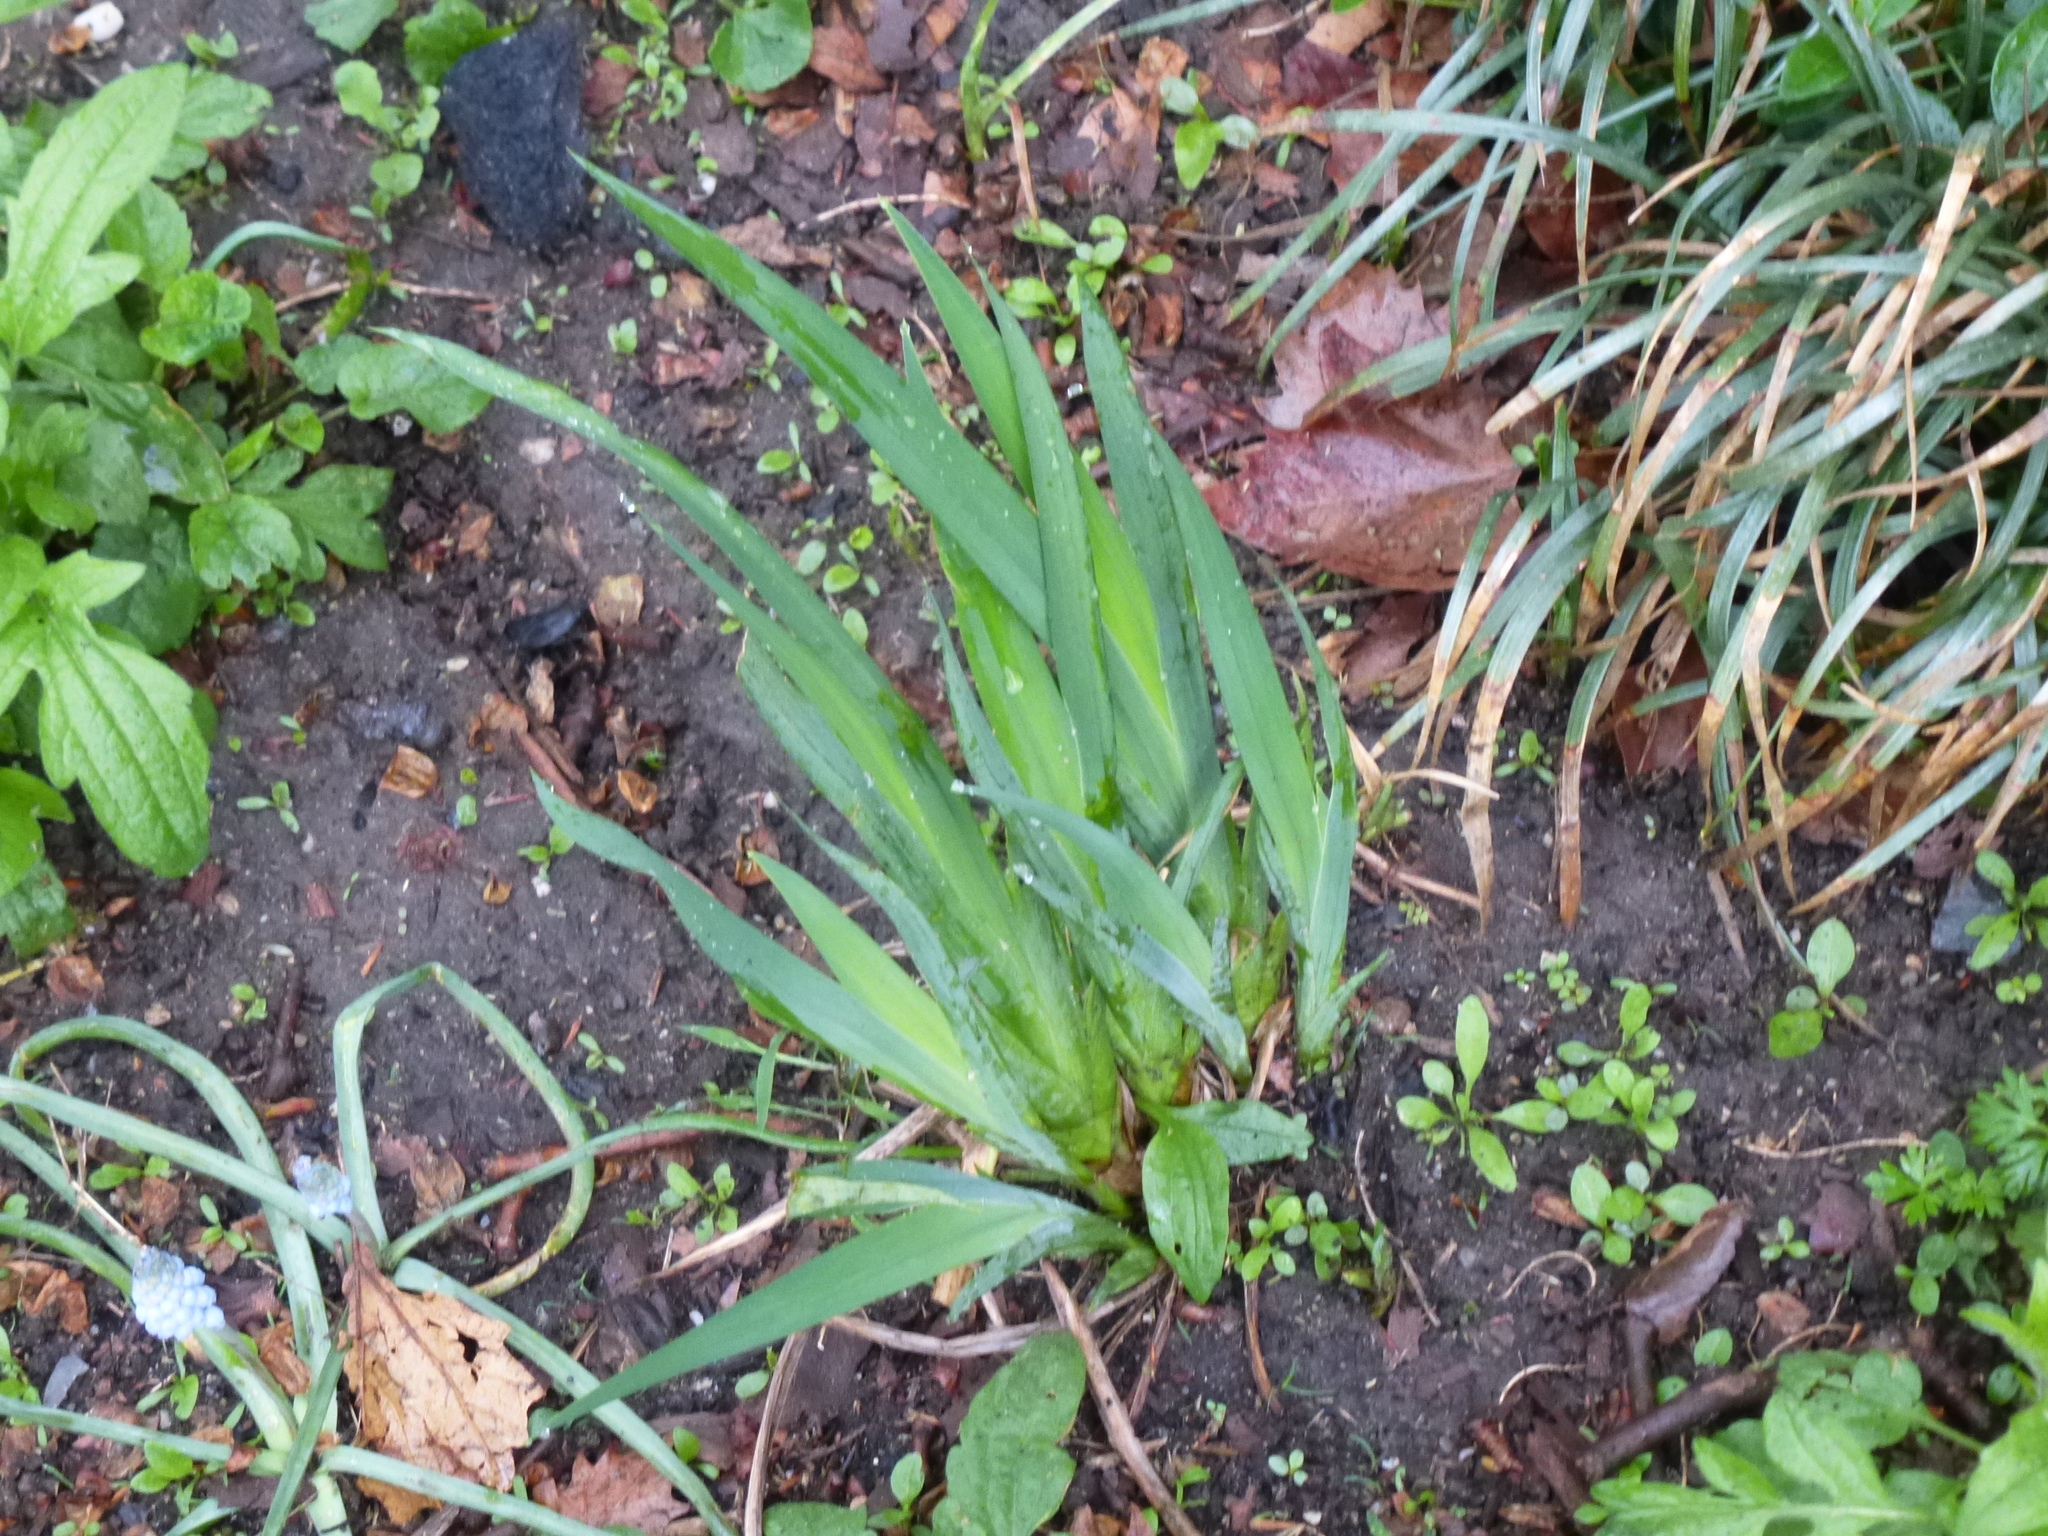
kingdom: Plantae
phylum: Tracheophyta
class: Liliopsida
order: Asparagales
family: Iridaceae
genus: Iris
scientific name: Iris
